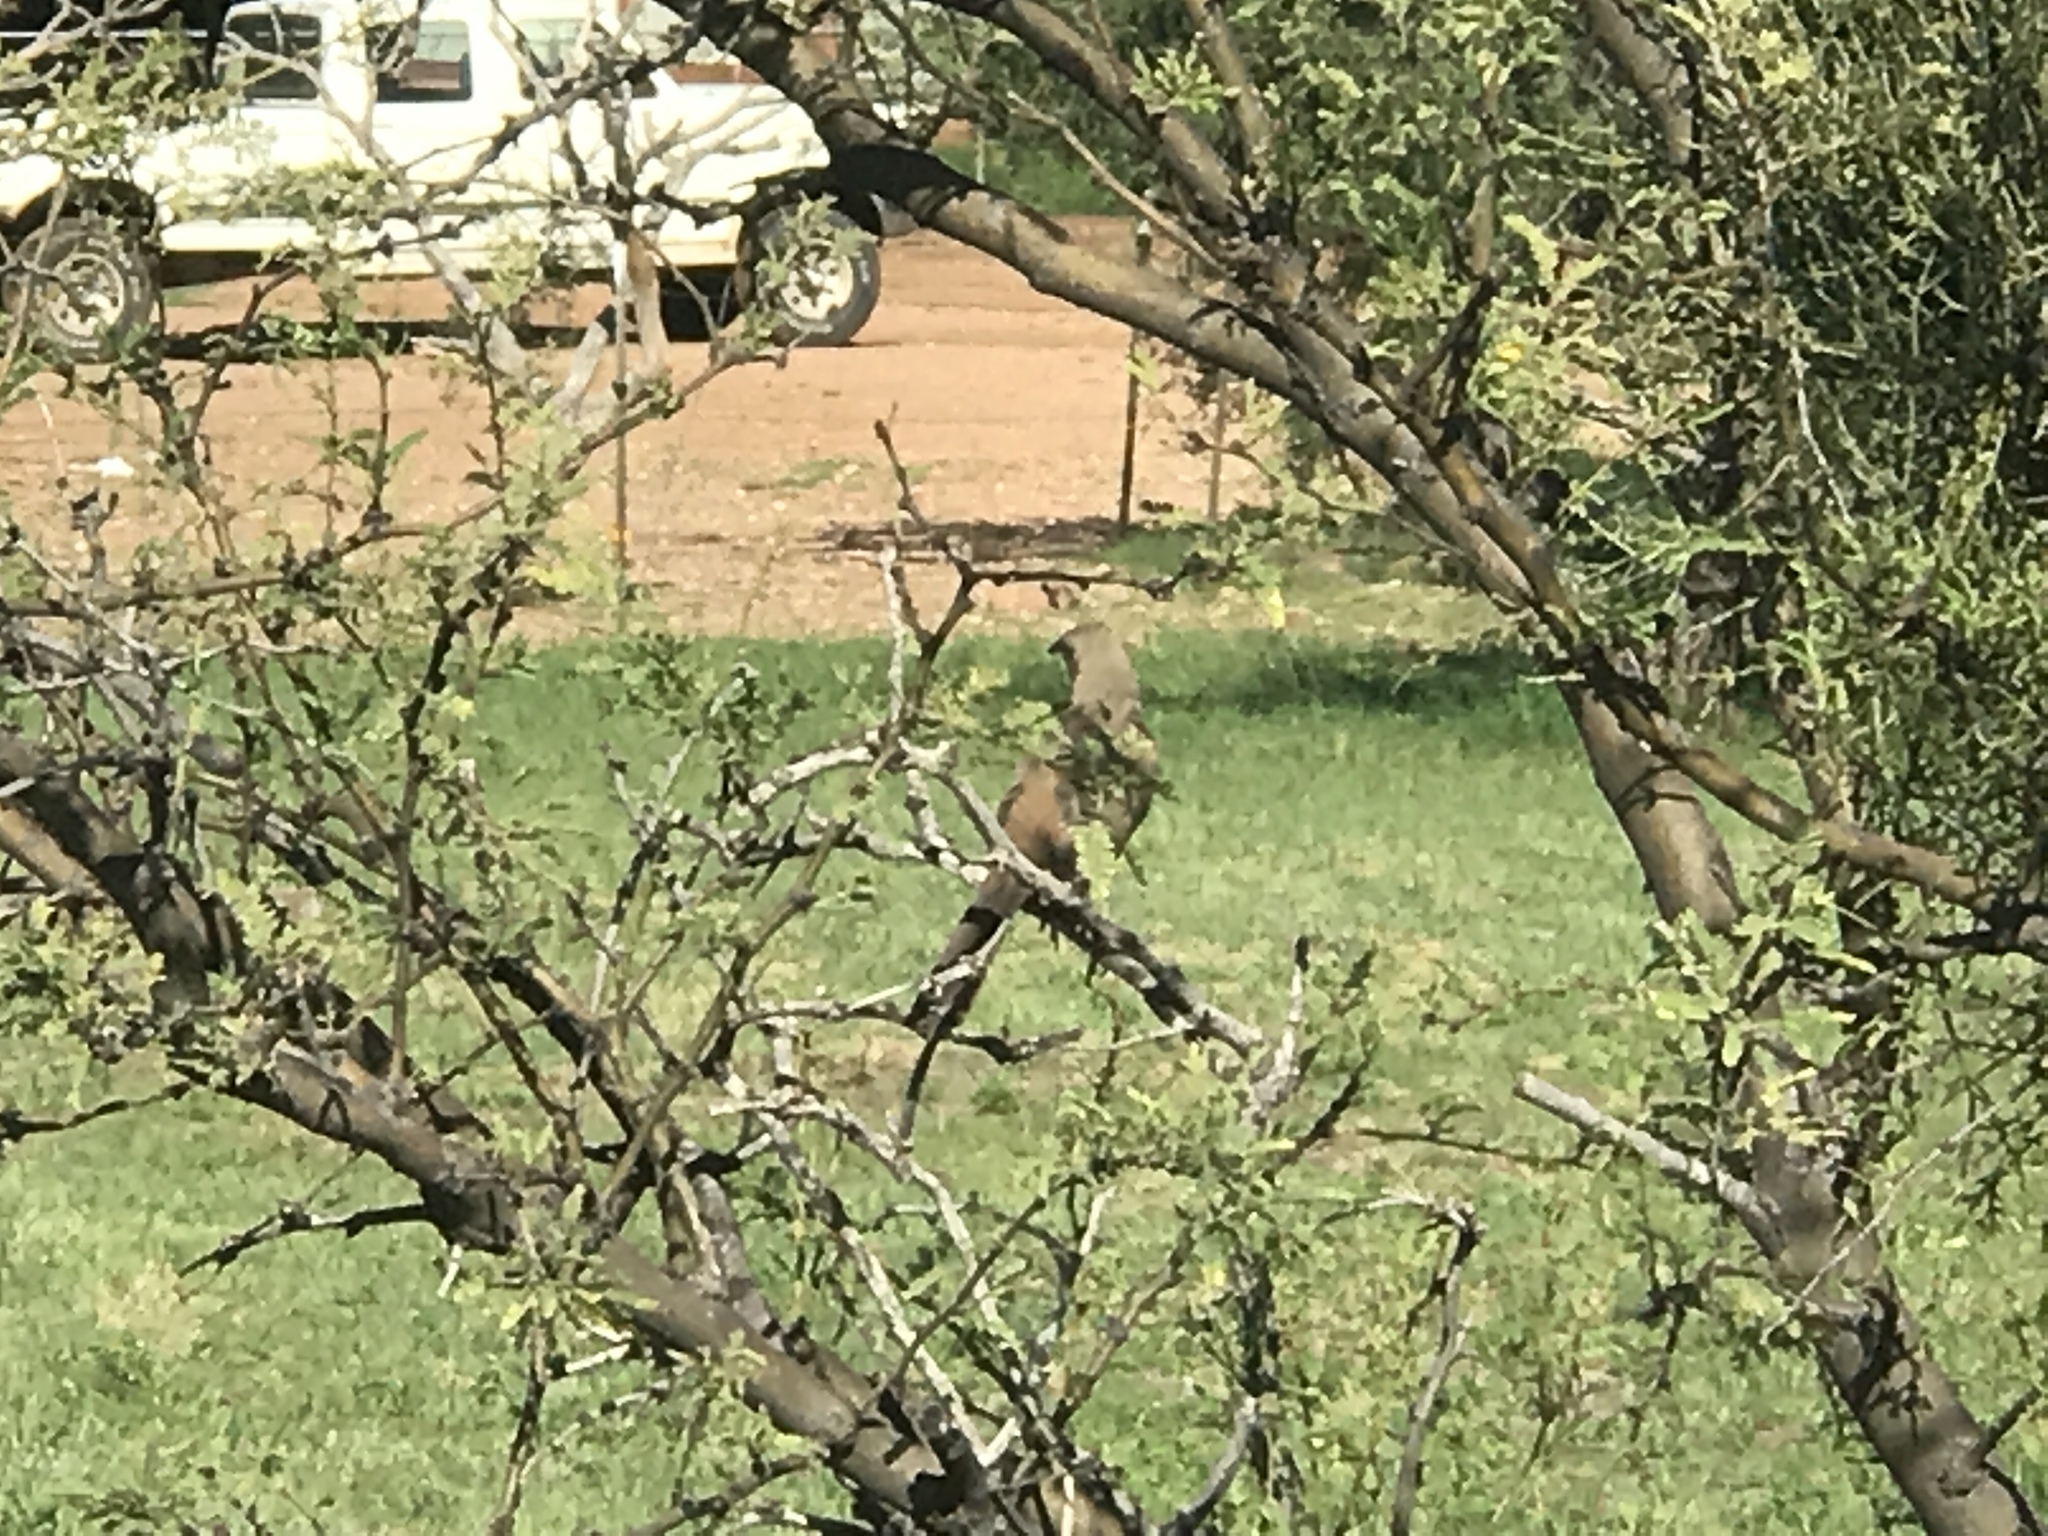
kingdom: Animalia
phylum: Chordata
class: Aves
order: Passeriformes
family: Mimidae
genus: Toxostoma
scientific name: Toxostoma curvirostre
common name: Curve-billed thrasher
